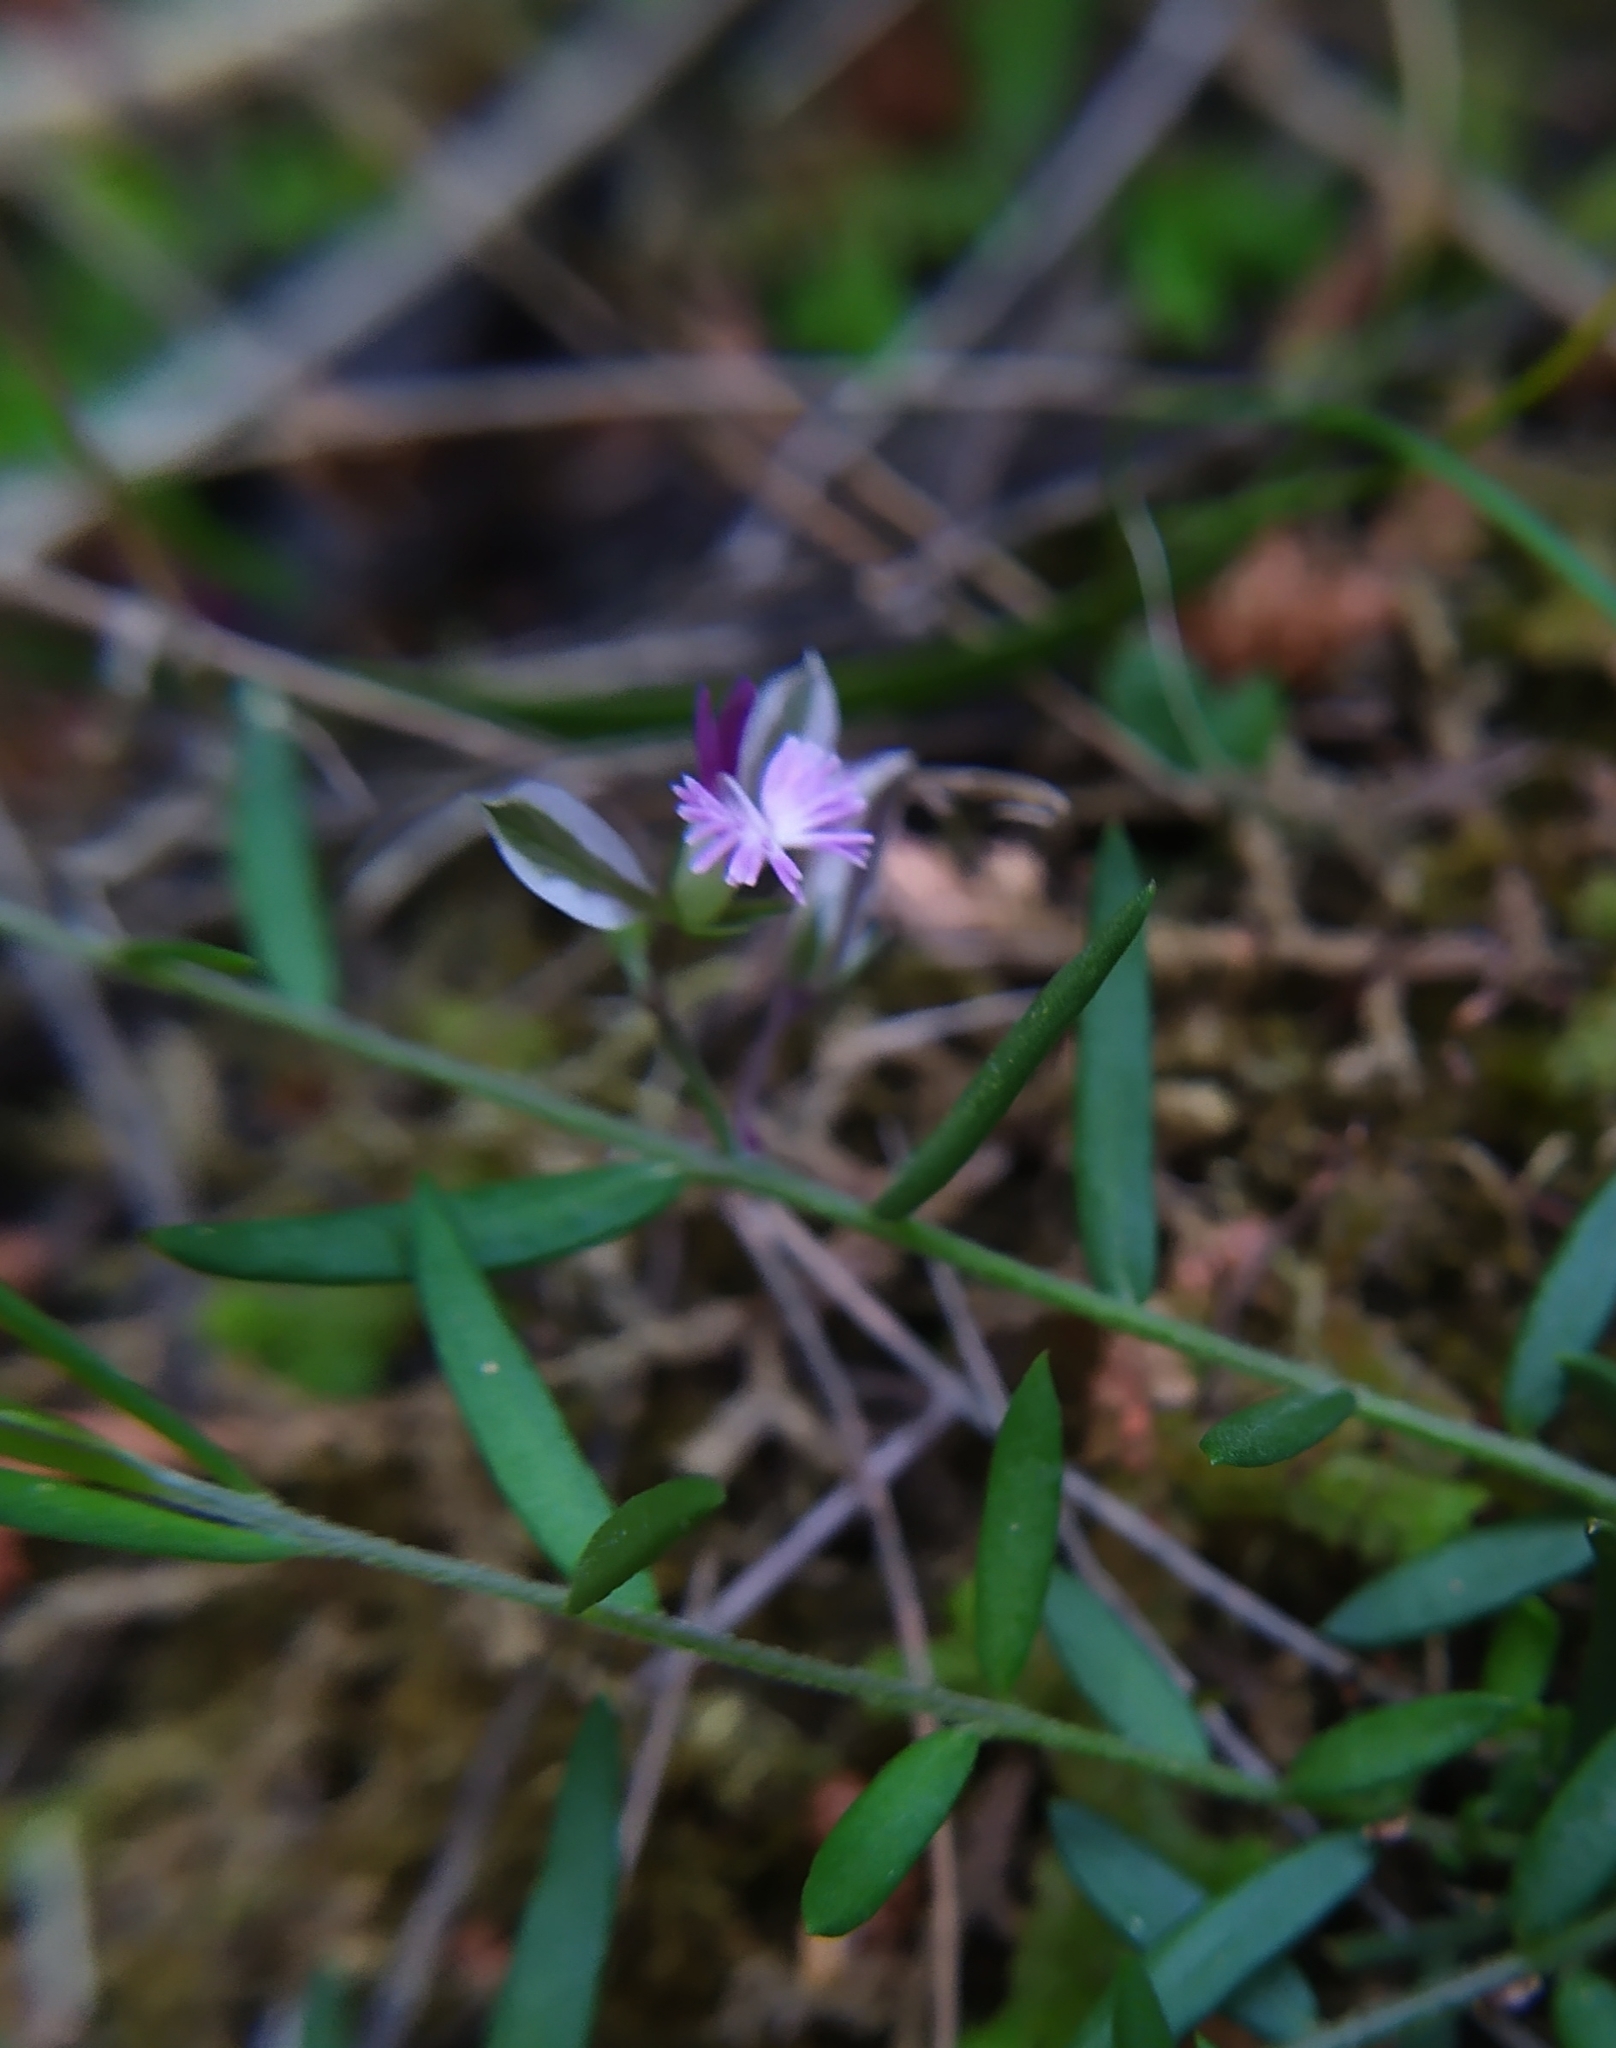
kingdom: Plantae
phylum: Tracheophyta
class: Magnoliopsida
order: Fabales
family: Polygalaceae
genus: Polygala
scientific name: Polygala rupestris
